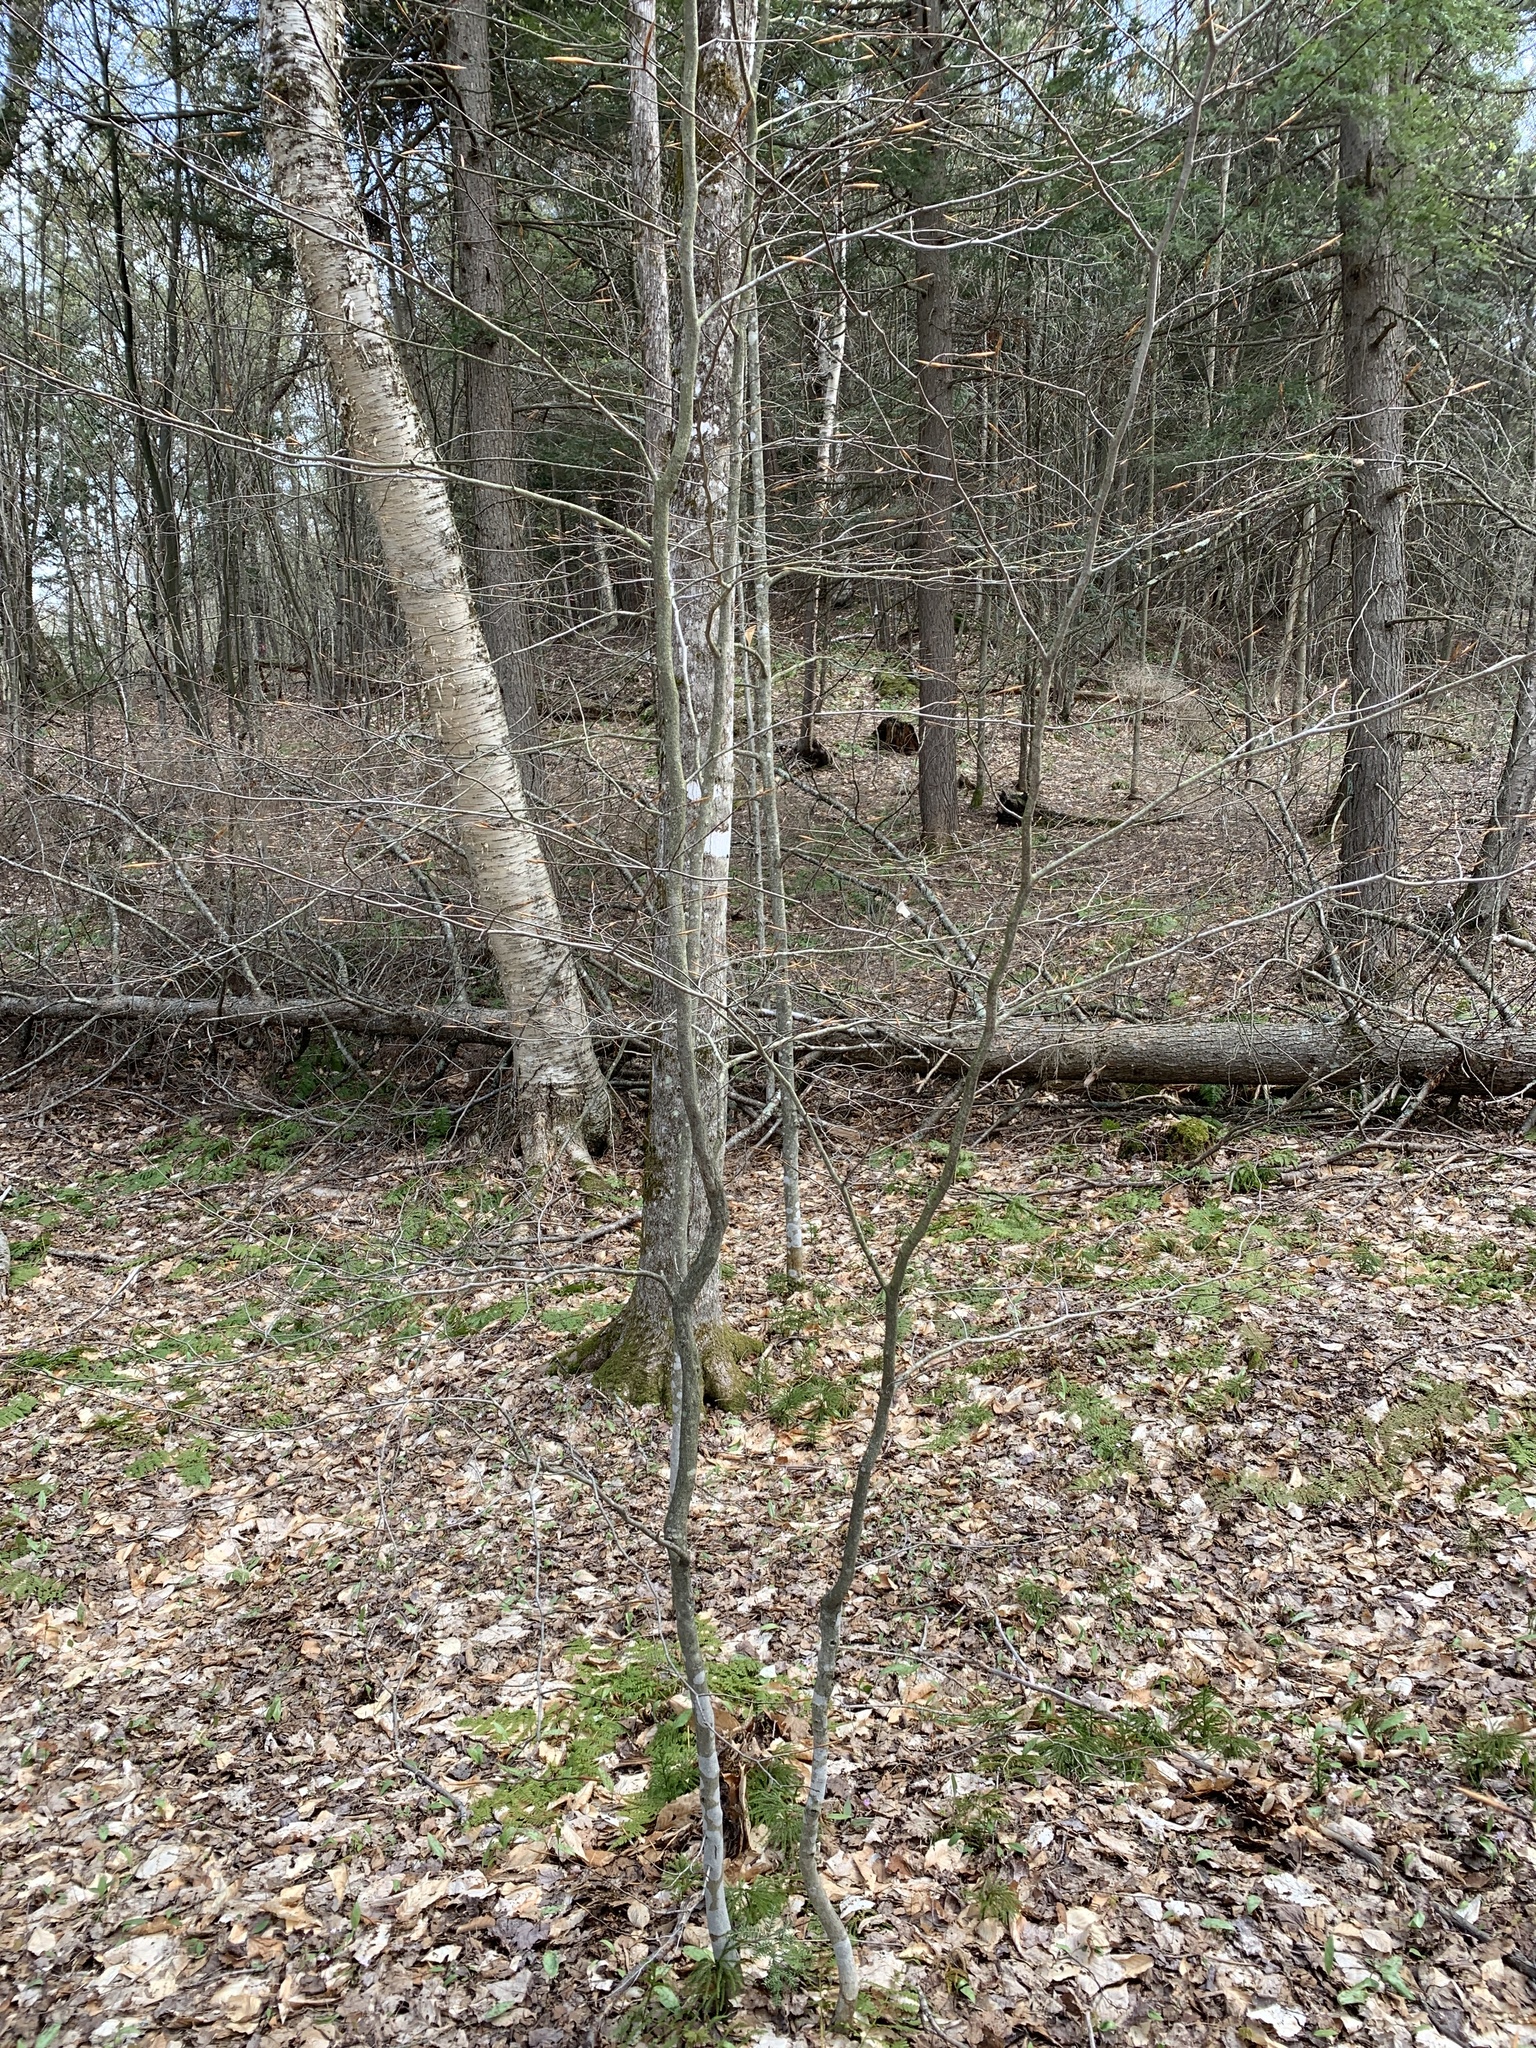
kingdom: Plantae
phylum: Tracheophyta
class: Magnoliopsida
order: Fagales
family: Fagaceae
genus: Fagus
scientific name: Fagus grandifolia
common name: American beech
